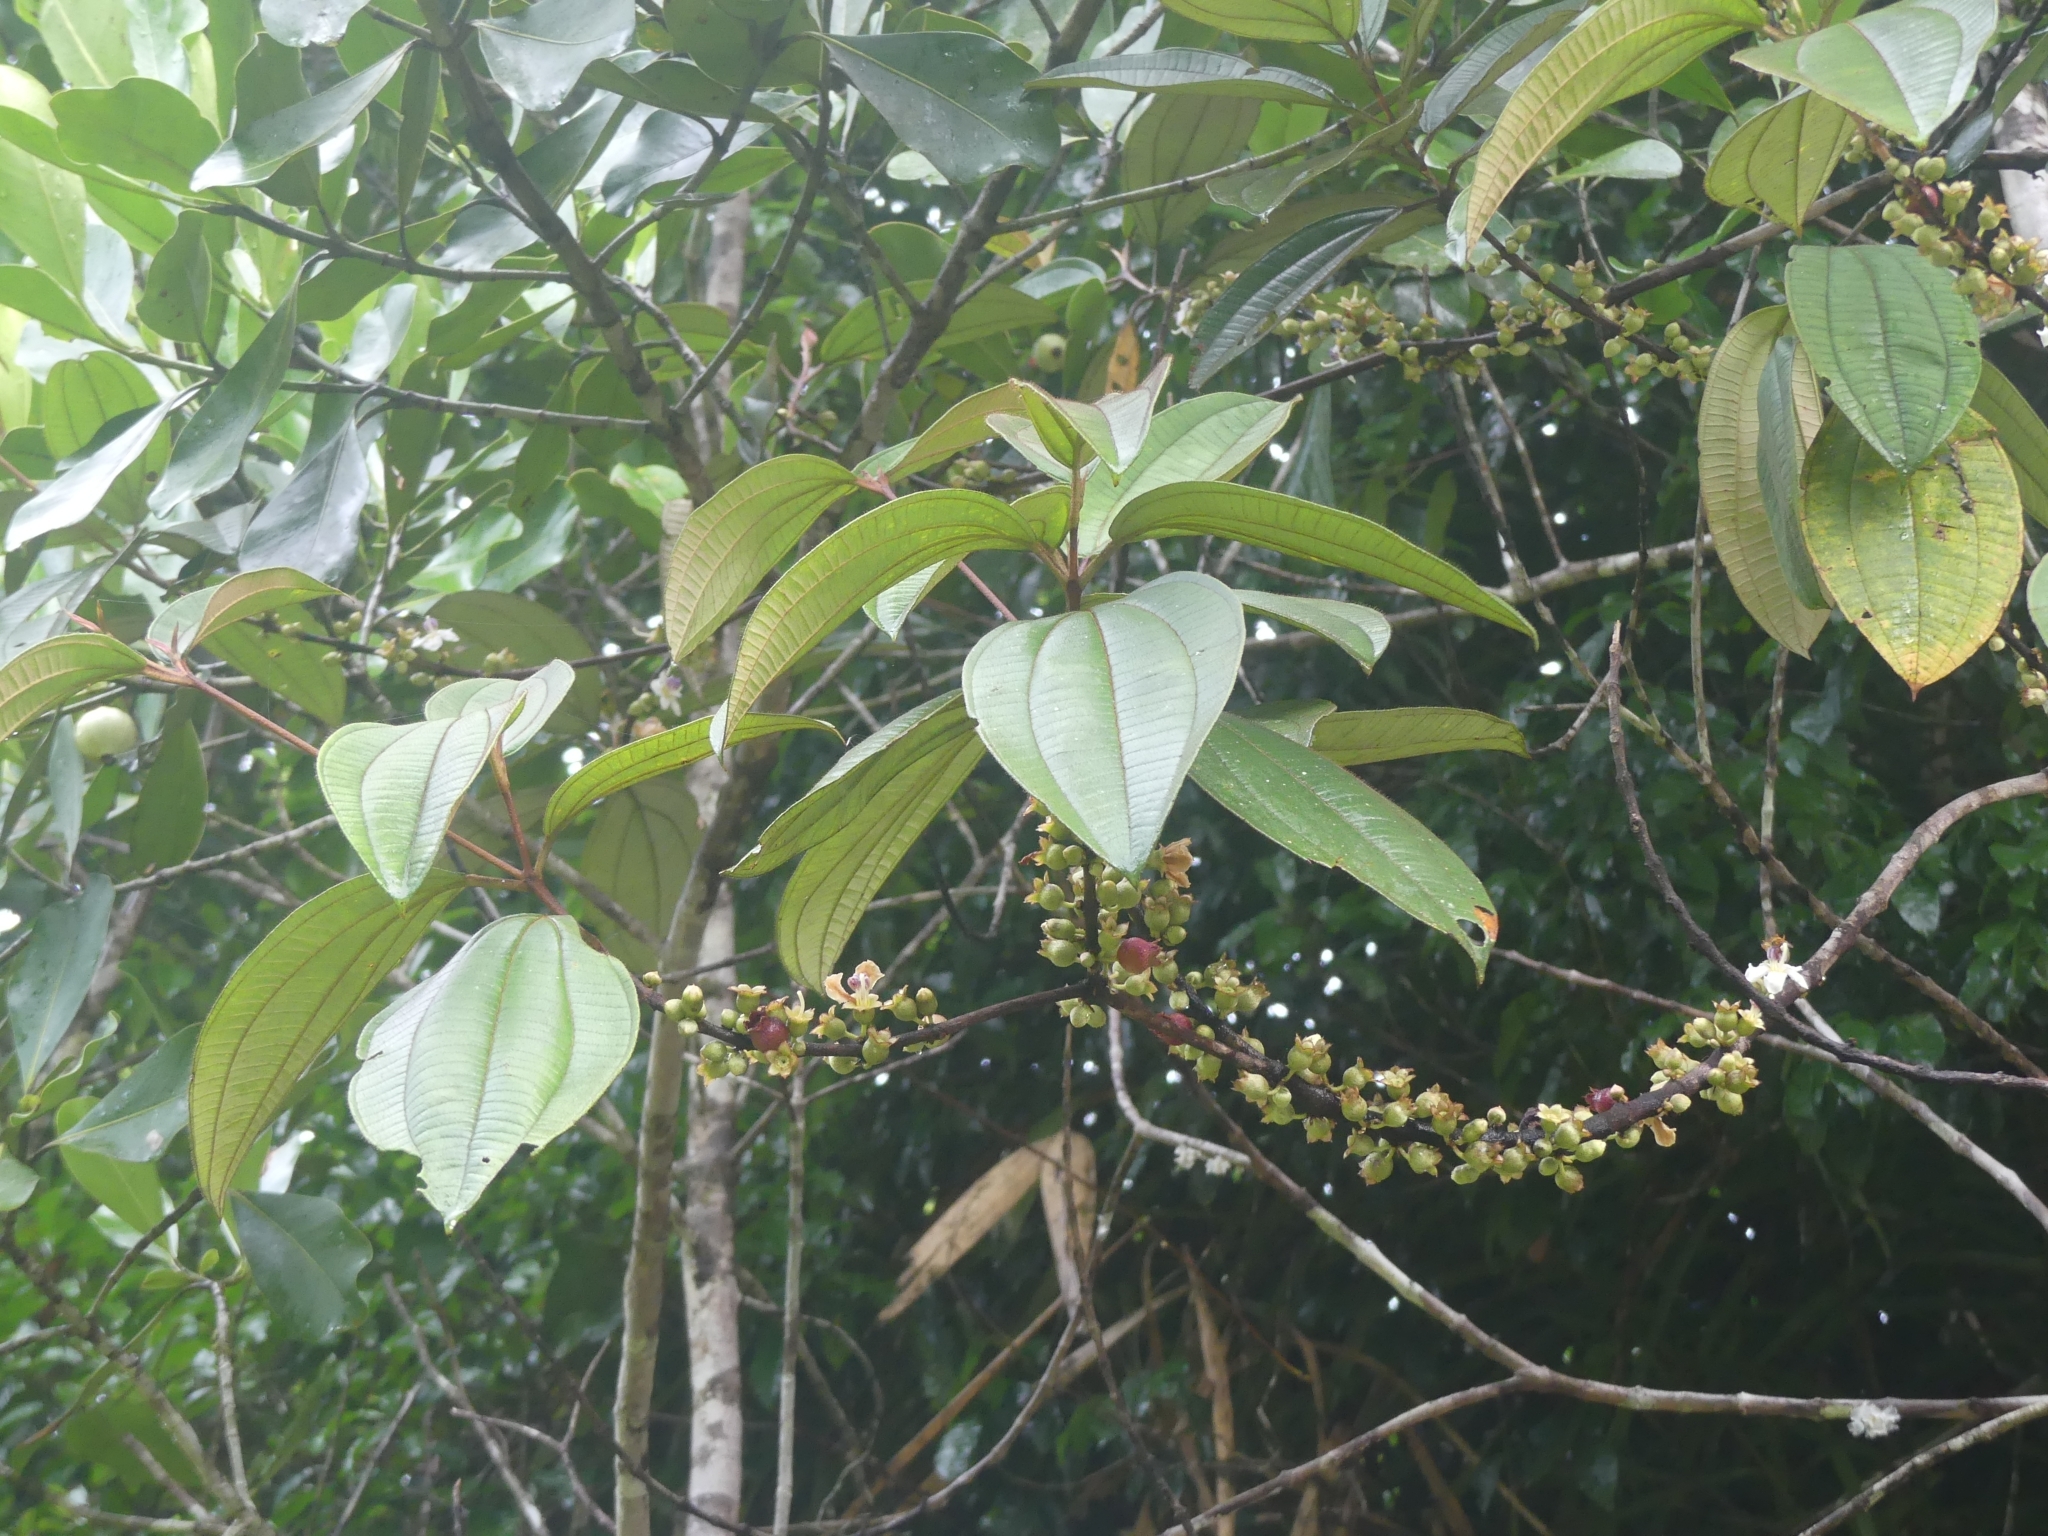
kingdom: Plantae
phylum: Tracheophyta
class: Magnoliopsida
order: Myrtales
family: Melastomataceae
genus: Henriettea
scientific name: Henriettea succosa
